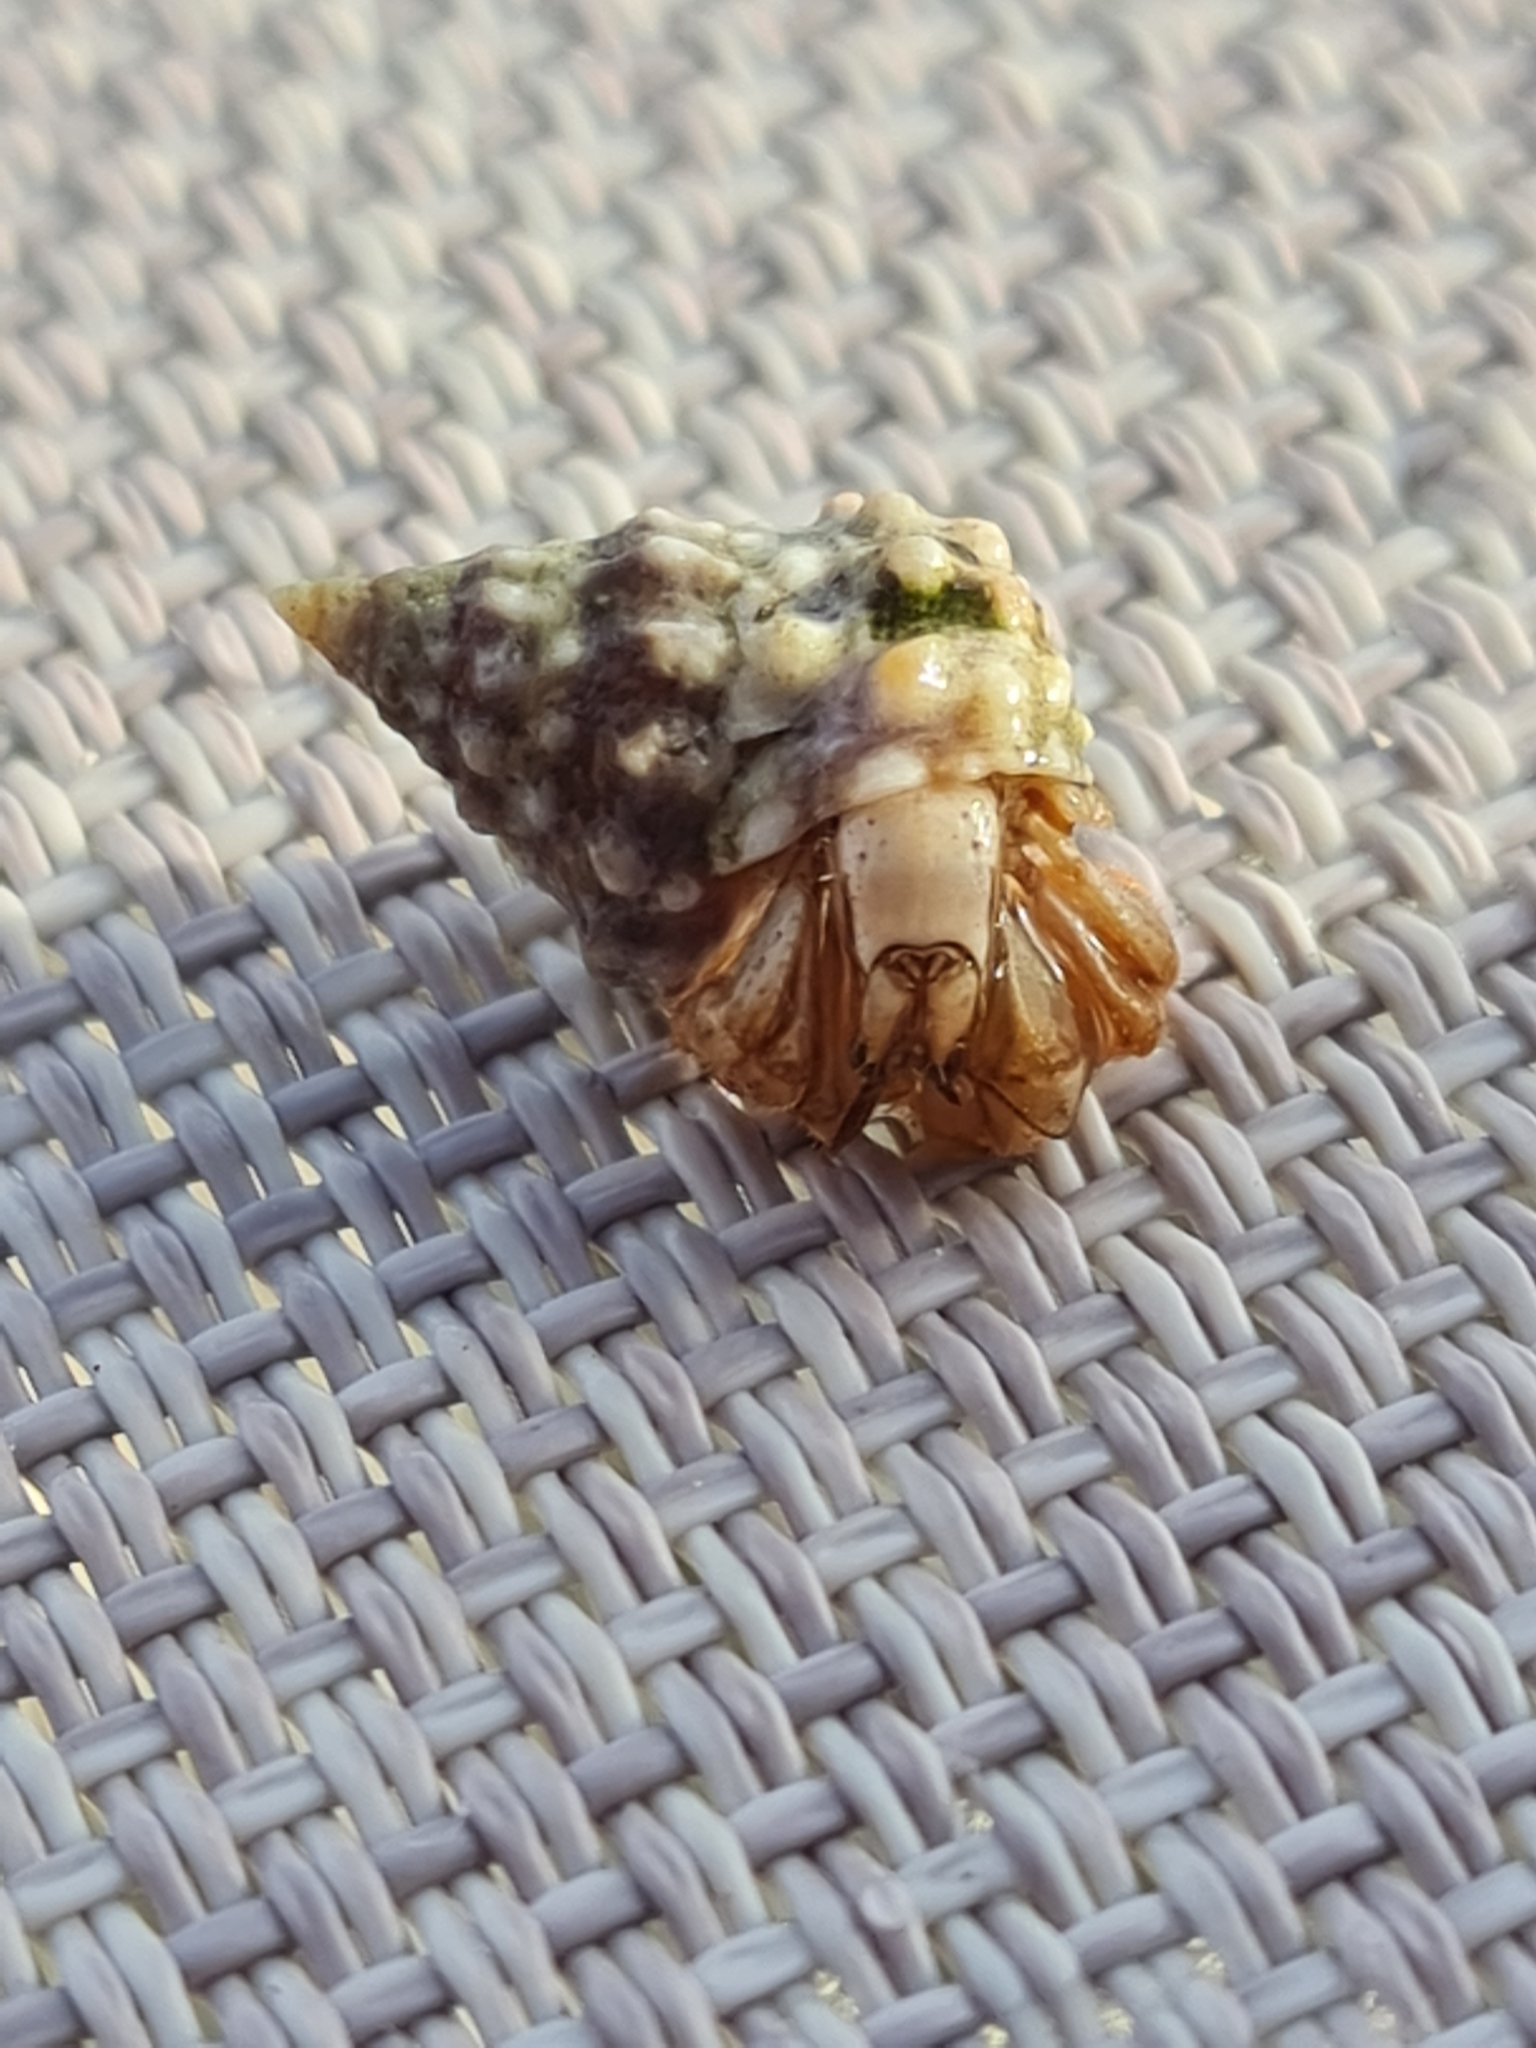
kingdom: Animalia
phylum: Arthropoda
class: Malacostraca
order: Decapoda
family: Coenobitidae
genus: Coenobita
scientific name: Coenobita clypeatus
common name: Caribbean hermit crab
